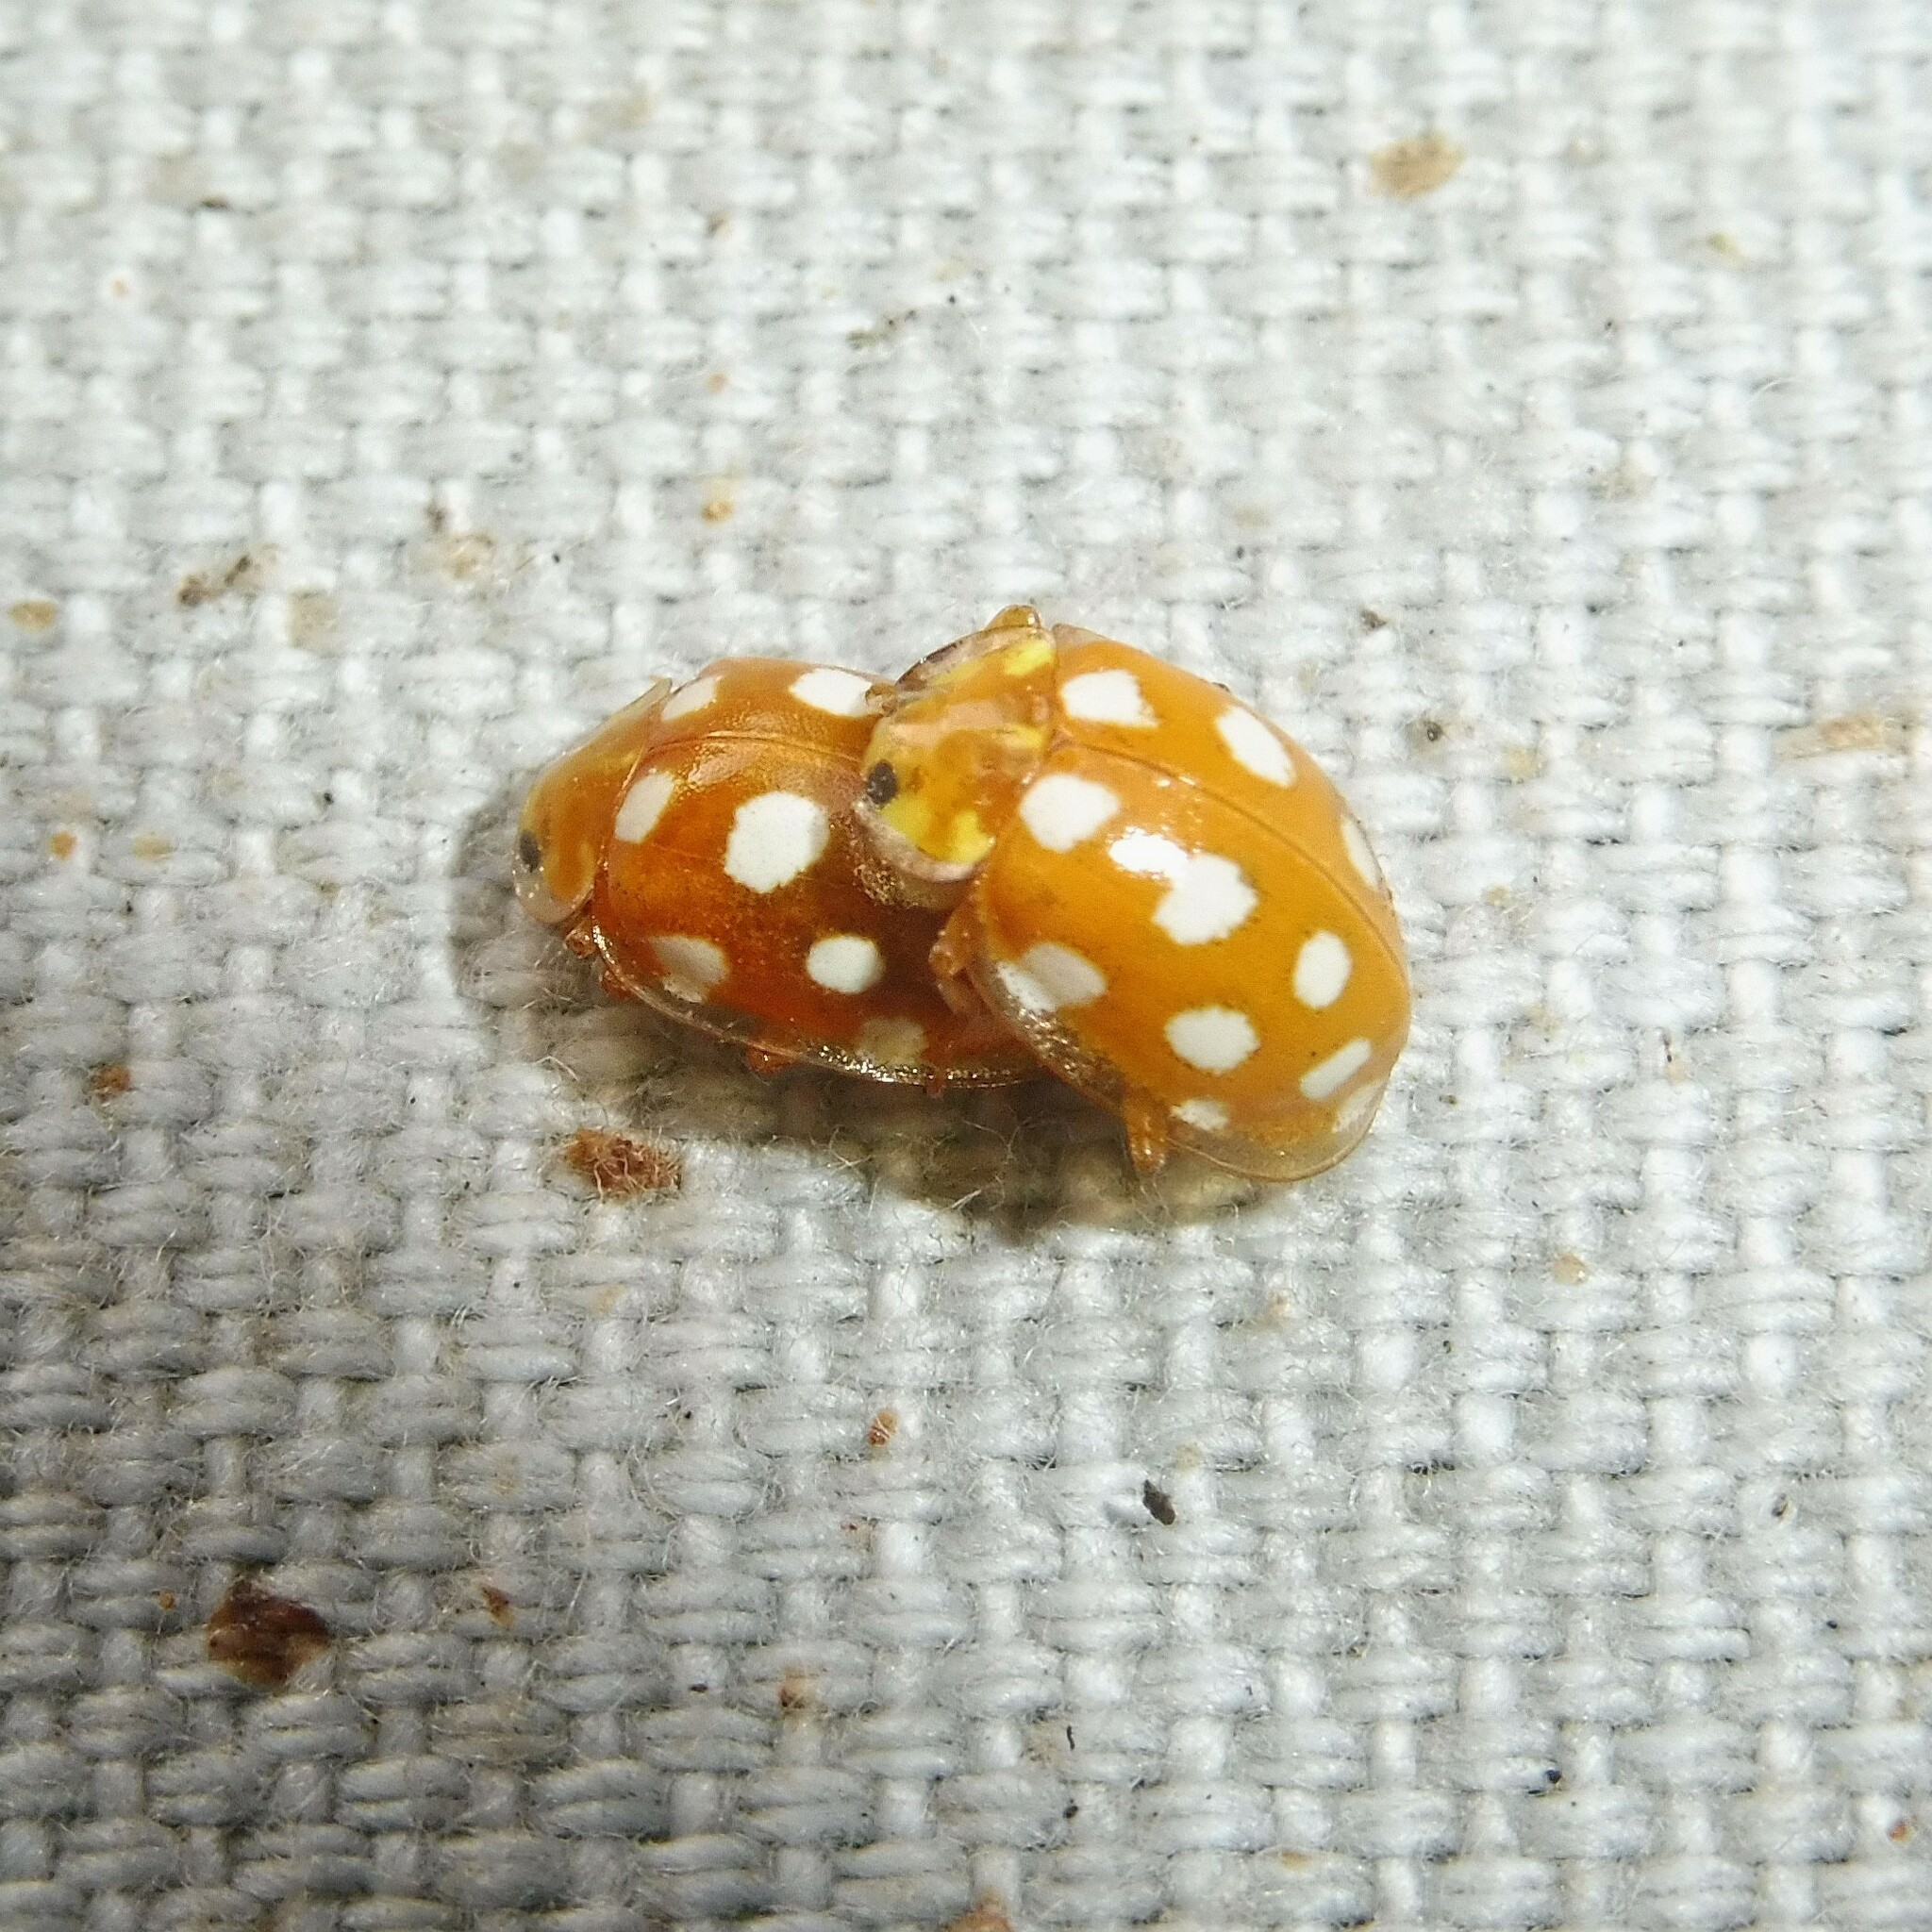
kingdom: Animalia
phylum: Arthropoda
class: Insecta
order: Coleoptera
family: Coccinellidae
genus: Halyzia
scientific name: Halyzia sedecimguttata
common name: Orange ladybird
